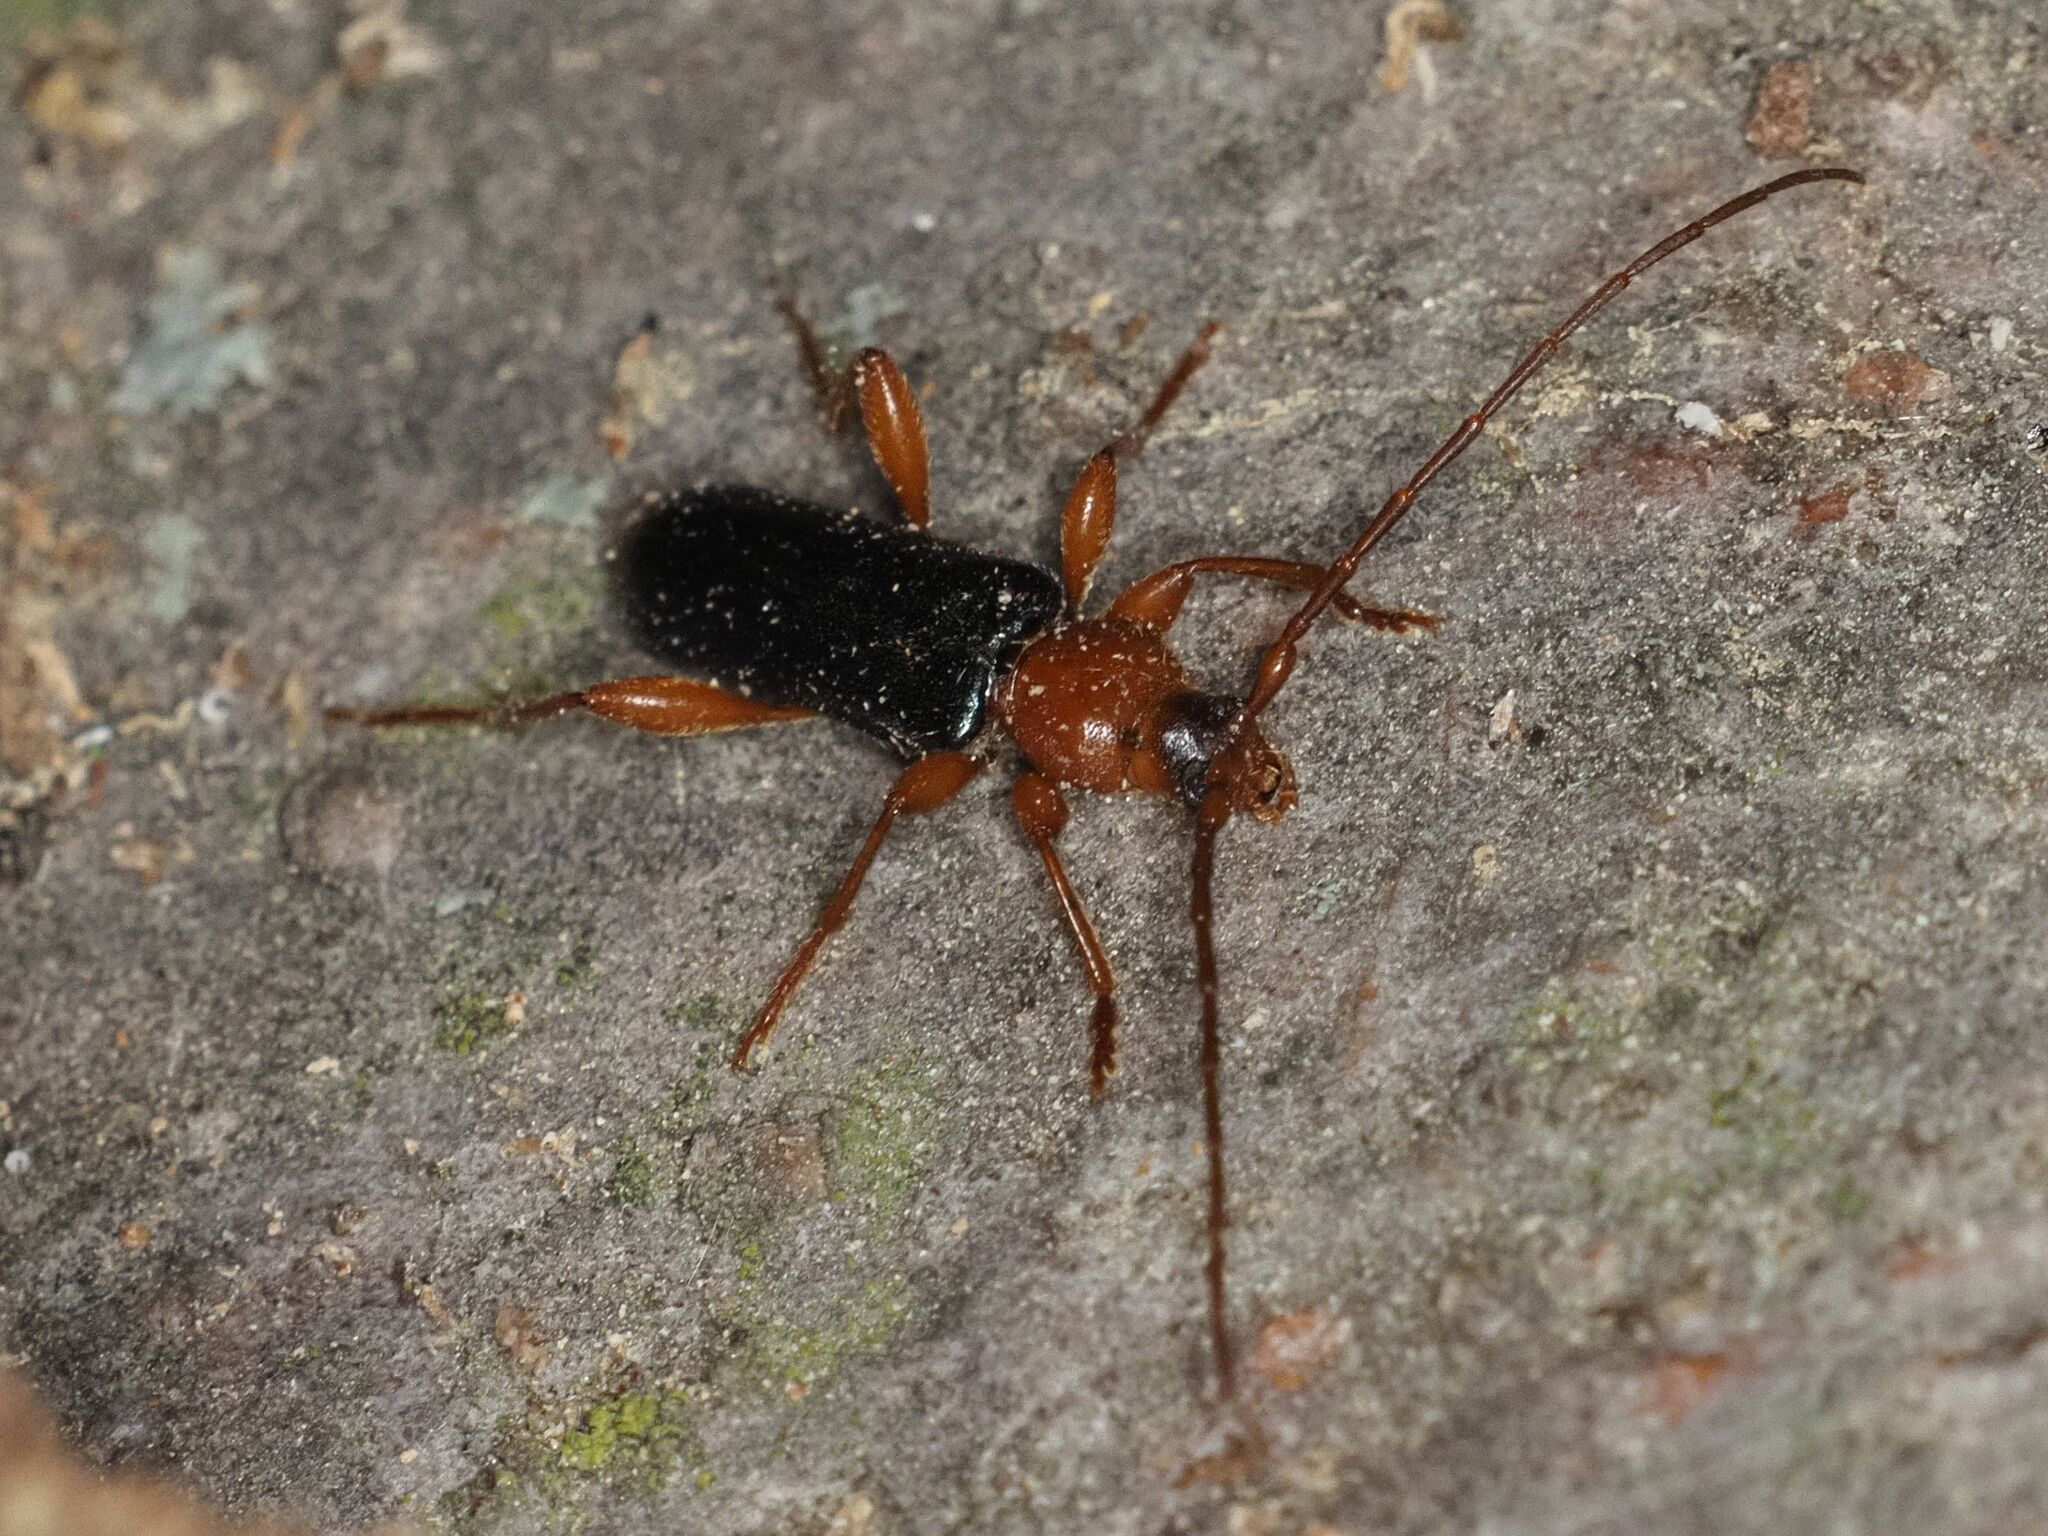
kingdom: Animalia
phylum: Arthropoda
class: Insecta
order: Coleoptera
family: Cerambycidae
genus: Phymatodes
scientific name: Phymatodes testaceus
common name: Long-horned beetle
